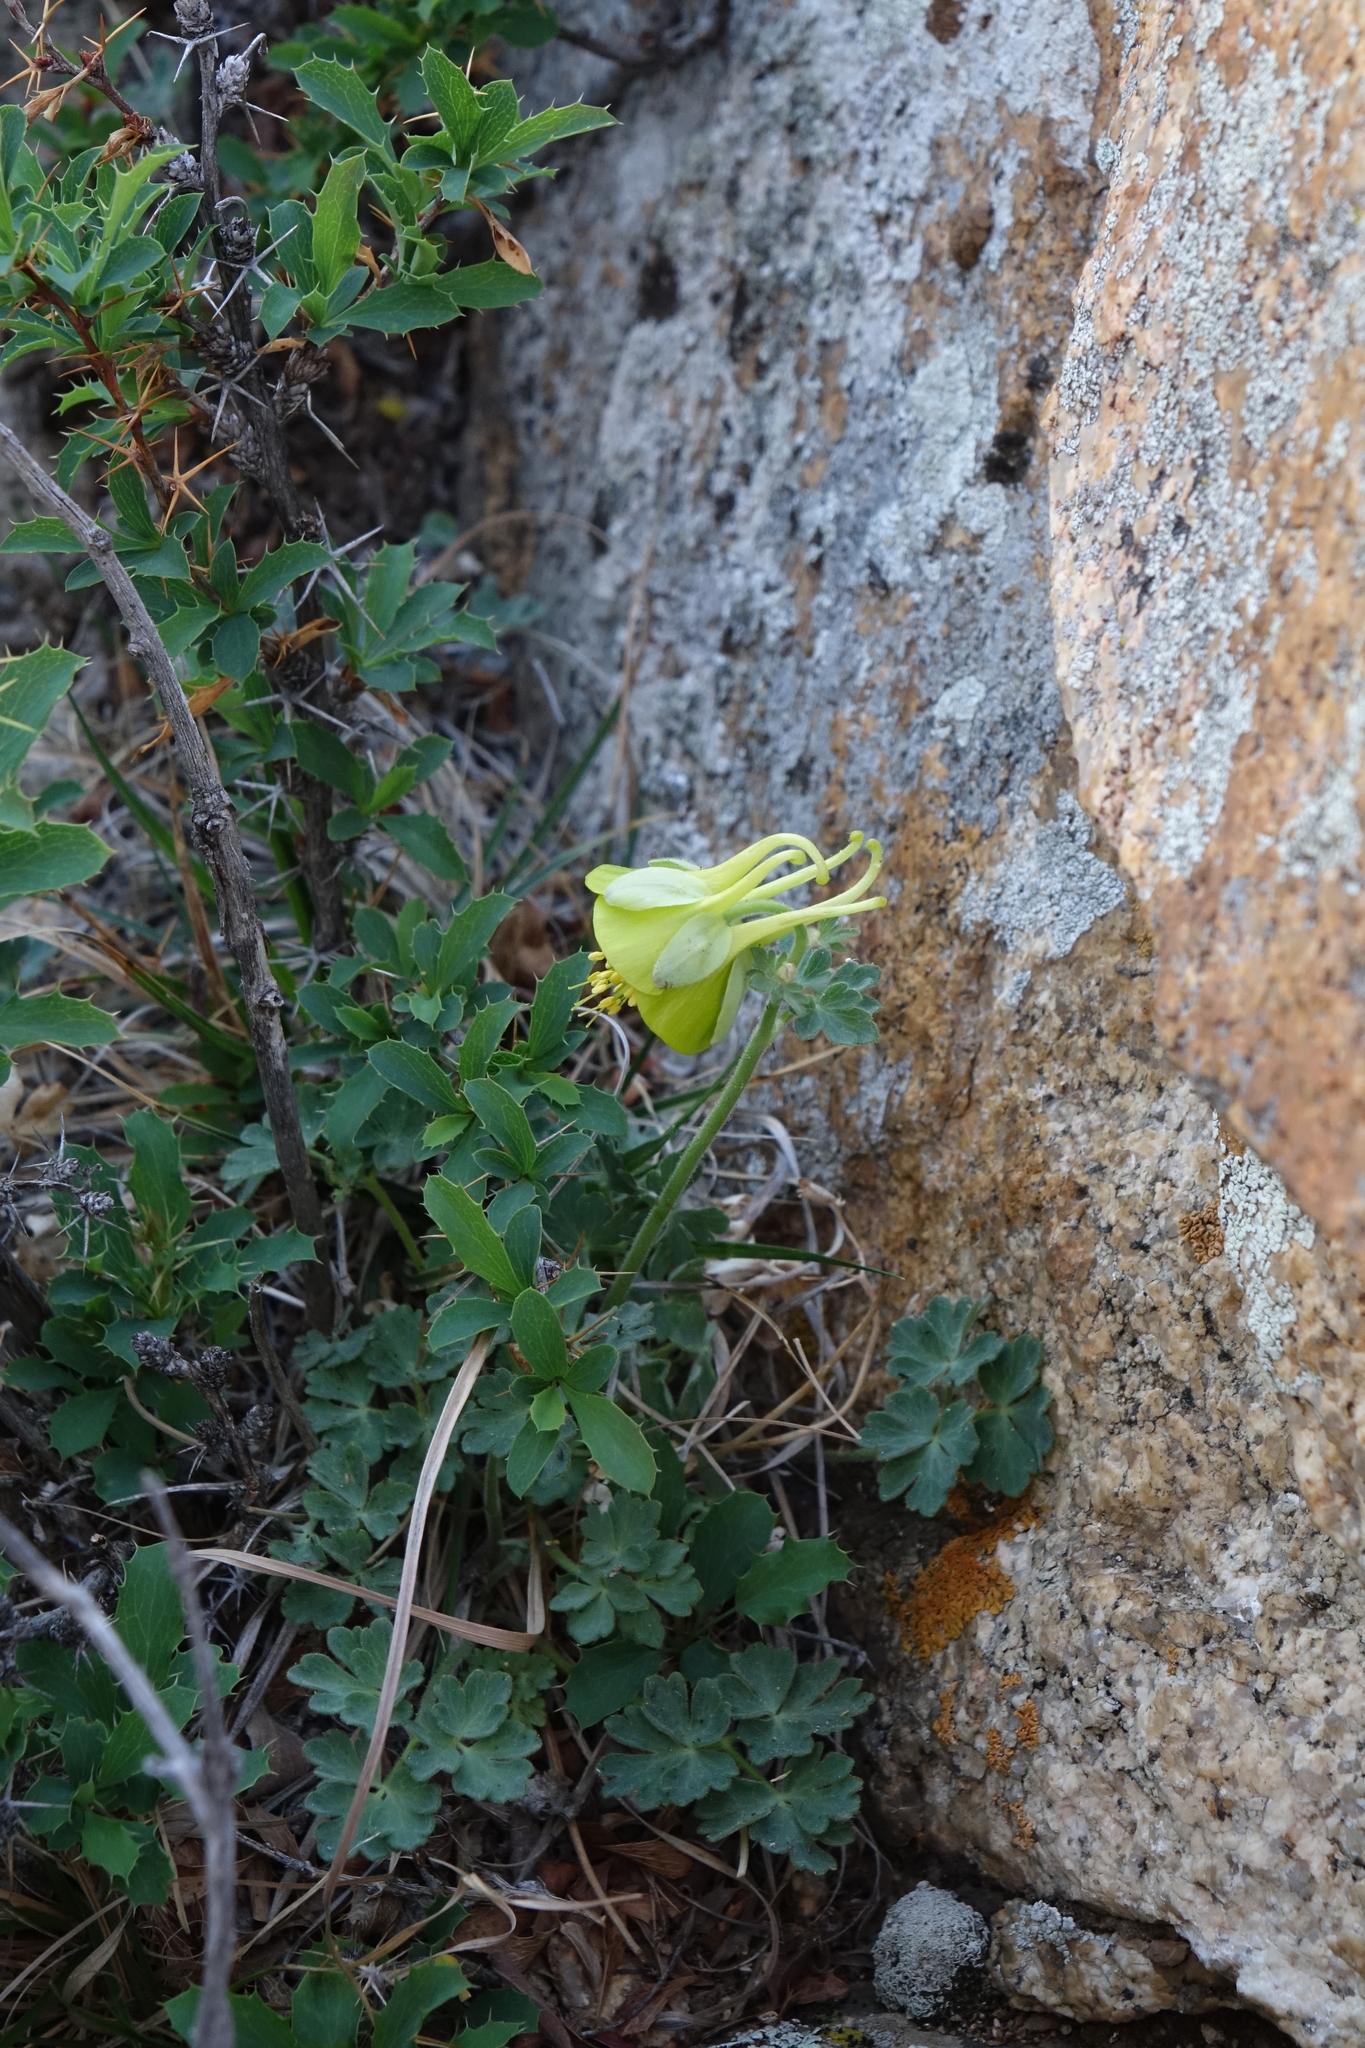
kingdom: Plantae
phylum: Tracheophyta
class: Magnoliopsida
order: Ranunculales
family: Ranunculaceae
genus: Aquilegia
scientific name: Aquilegia viridiflora
